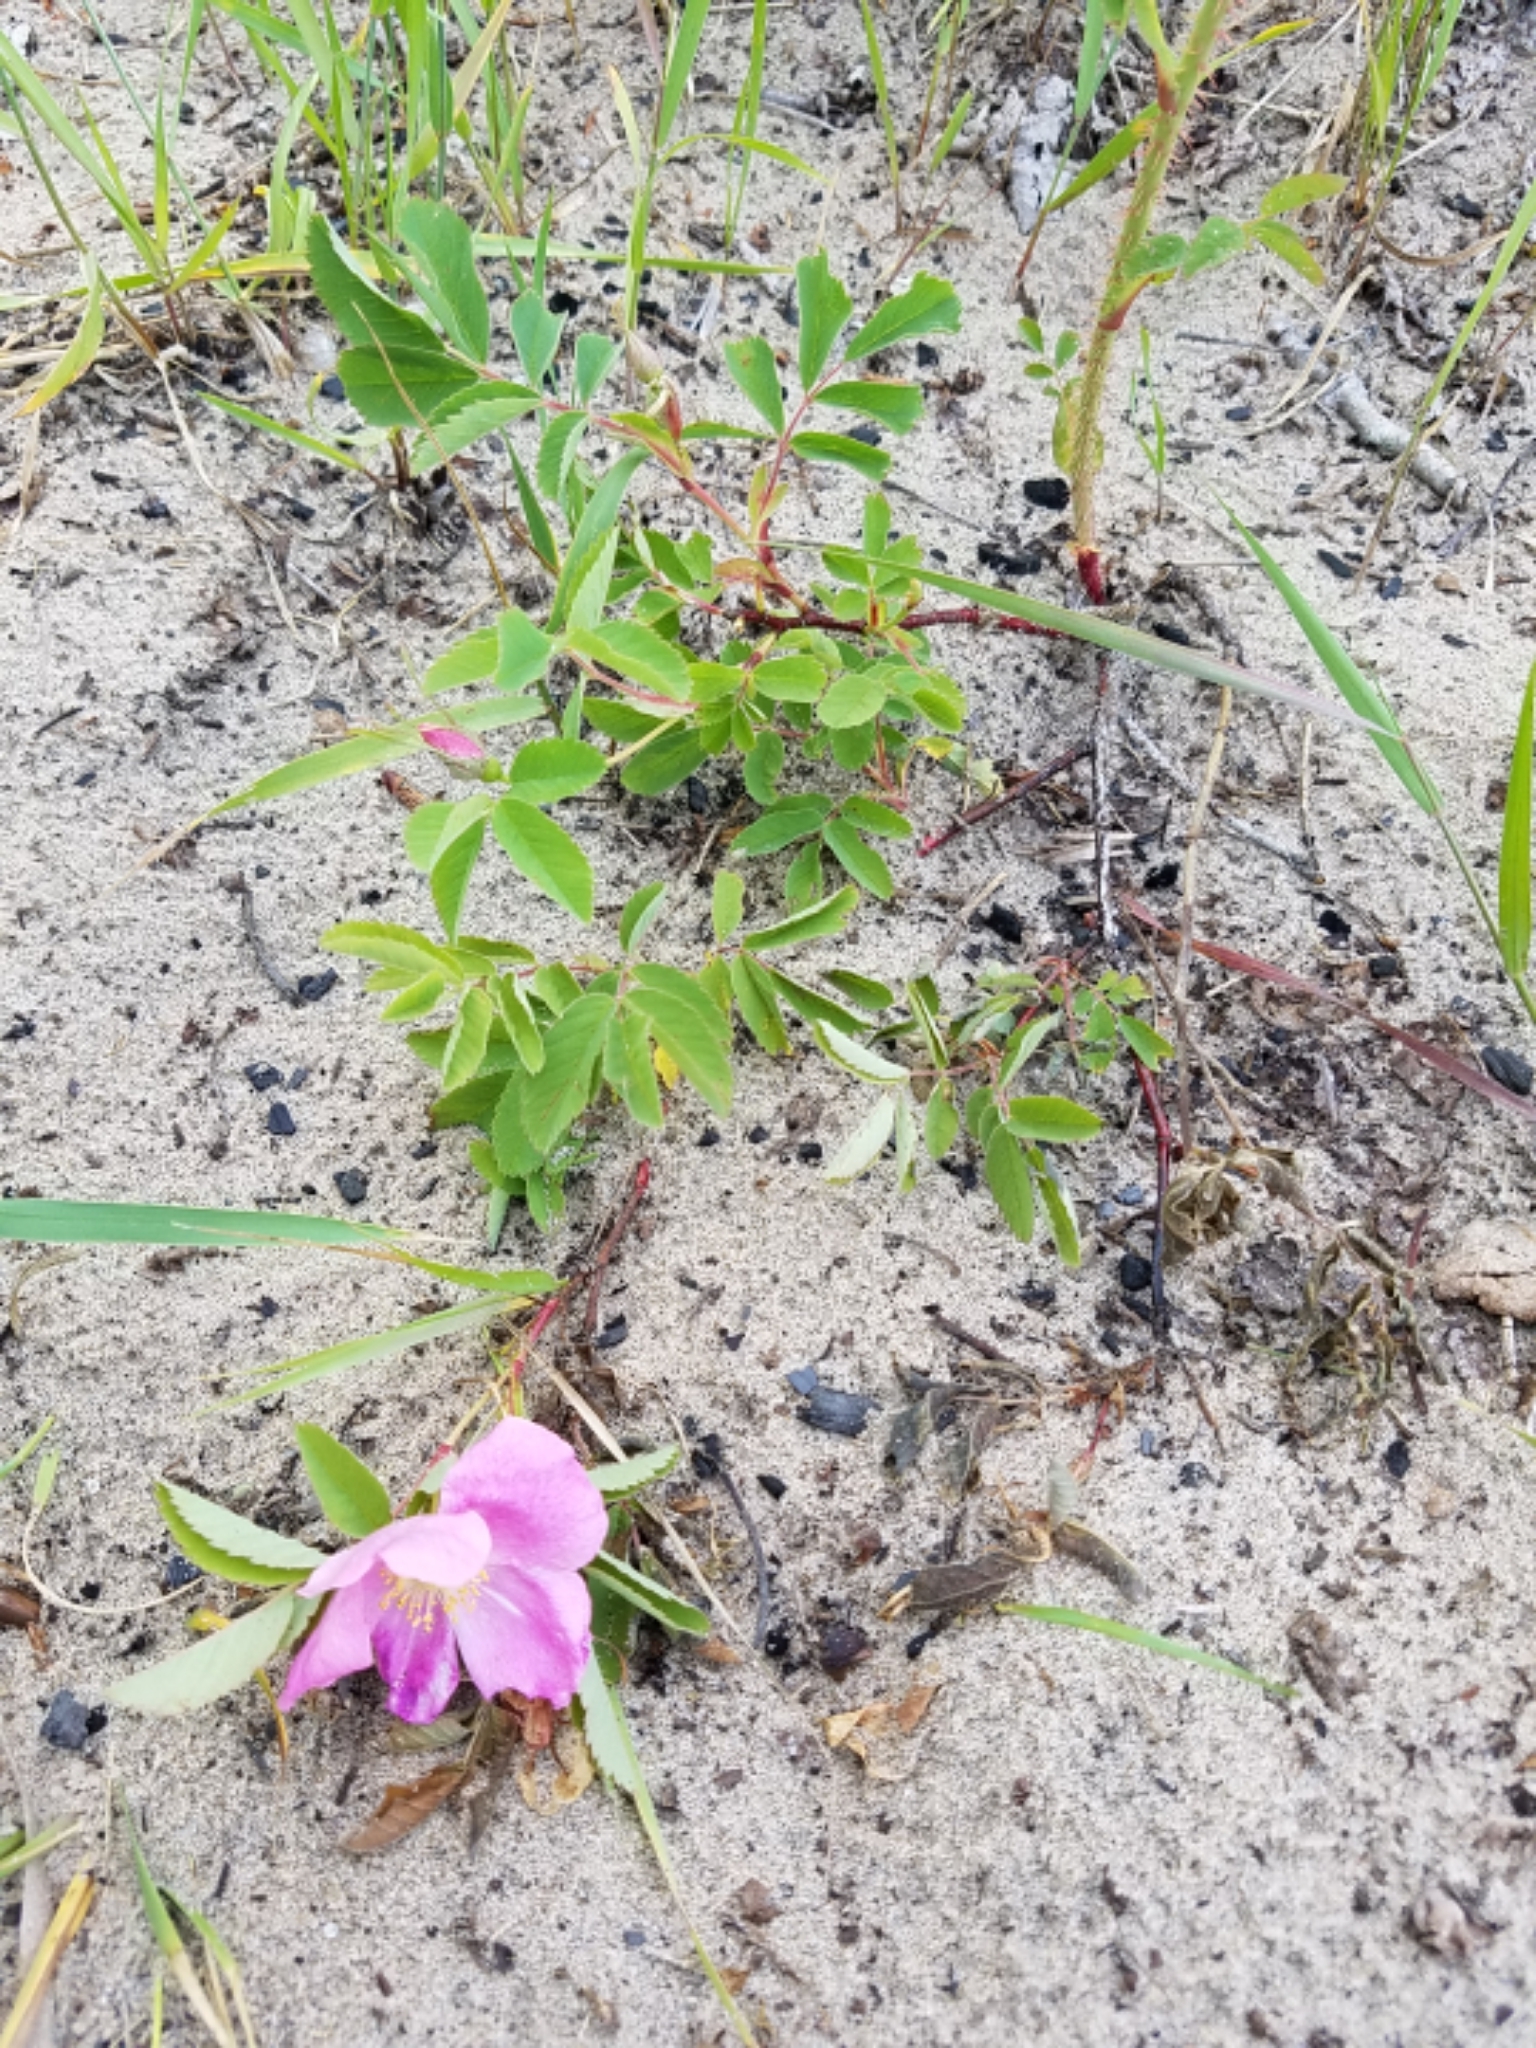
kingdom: Plantae
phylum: Tracheophyta
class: Magnoliopsida
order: Rosales
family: Rosaceae
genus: Rosa
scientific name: Rosa blanda
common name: Smooth rose
